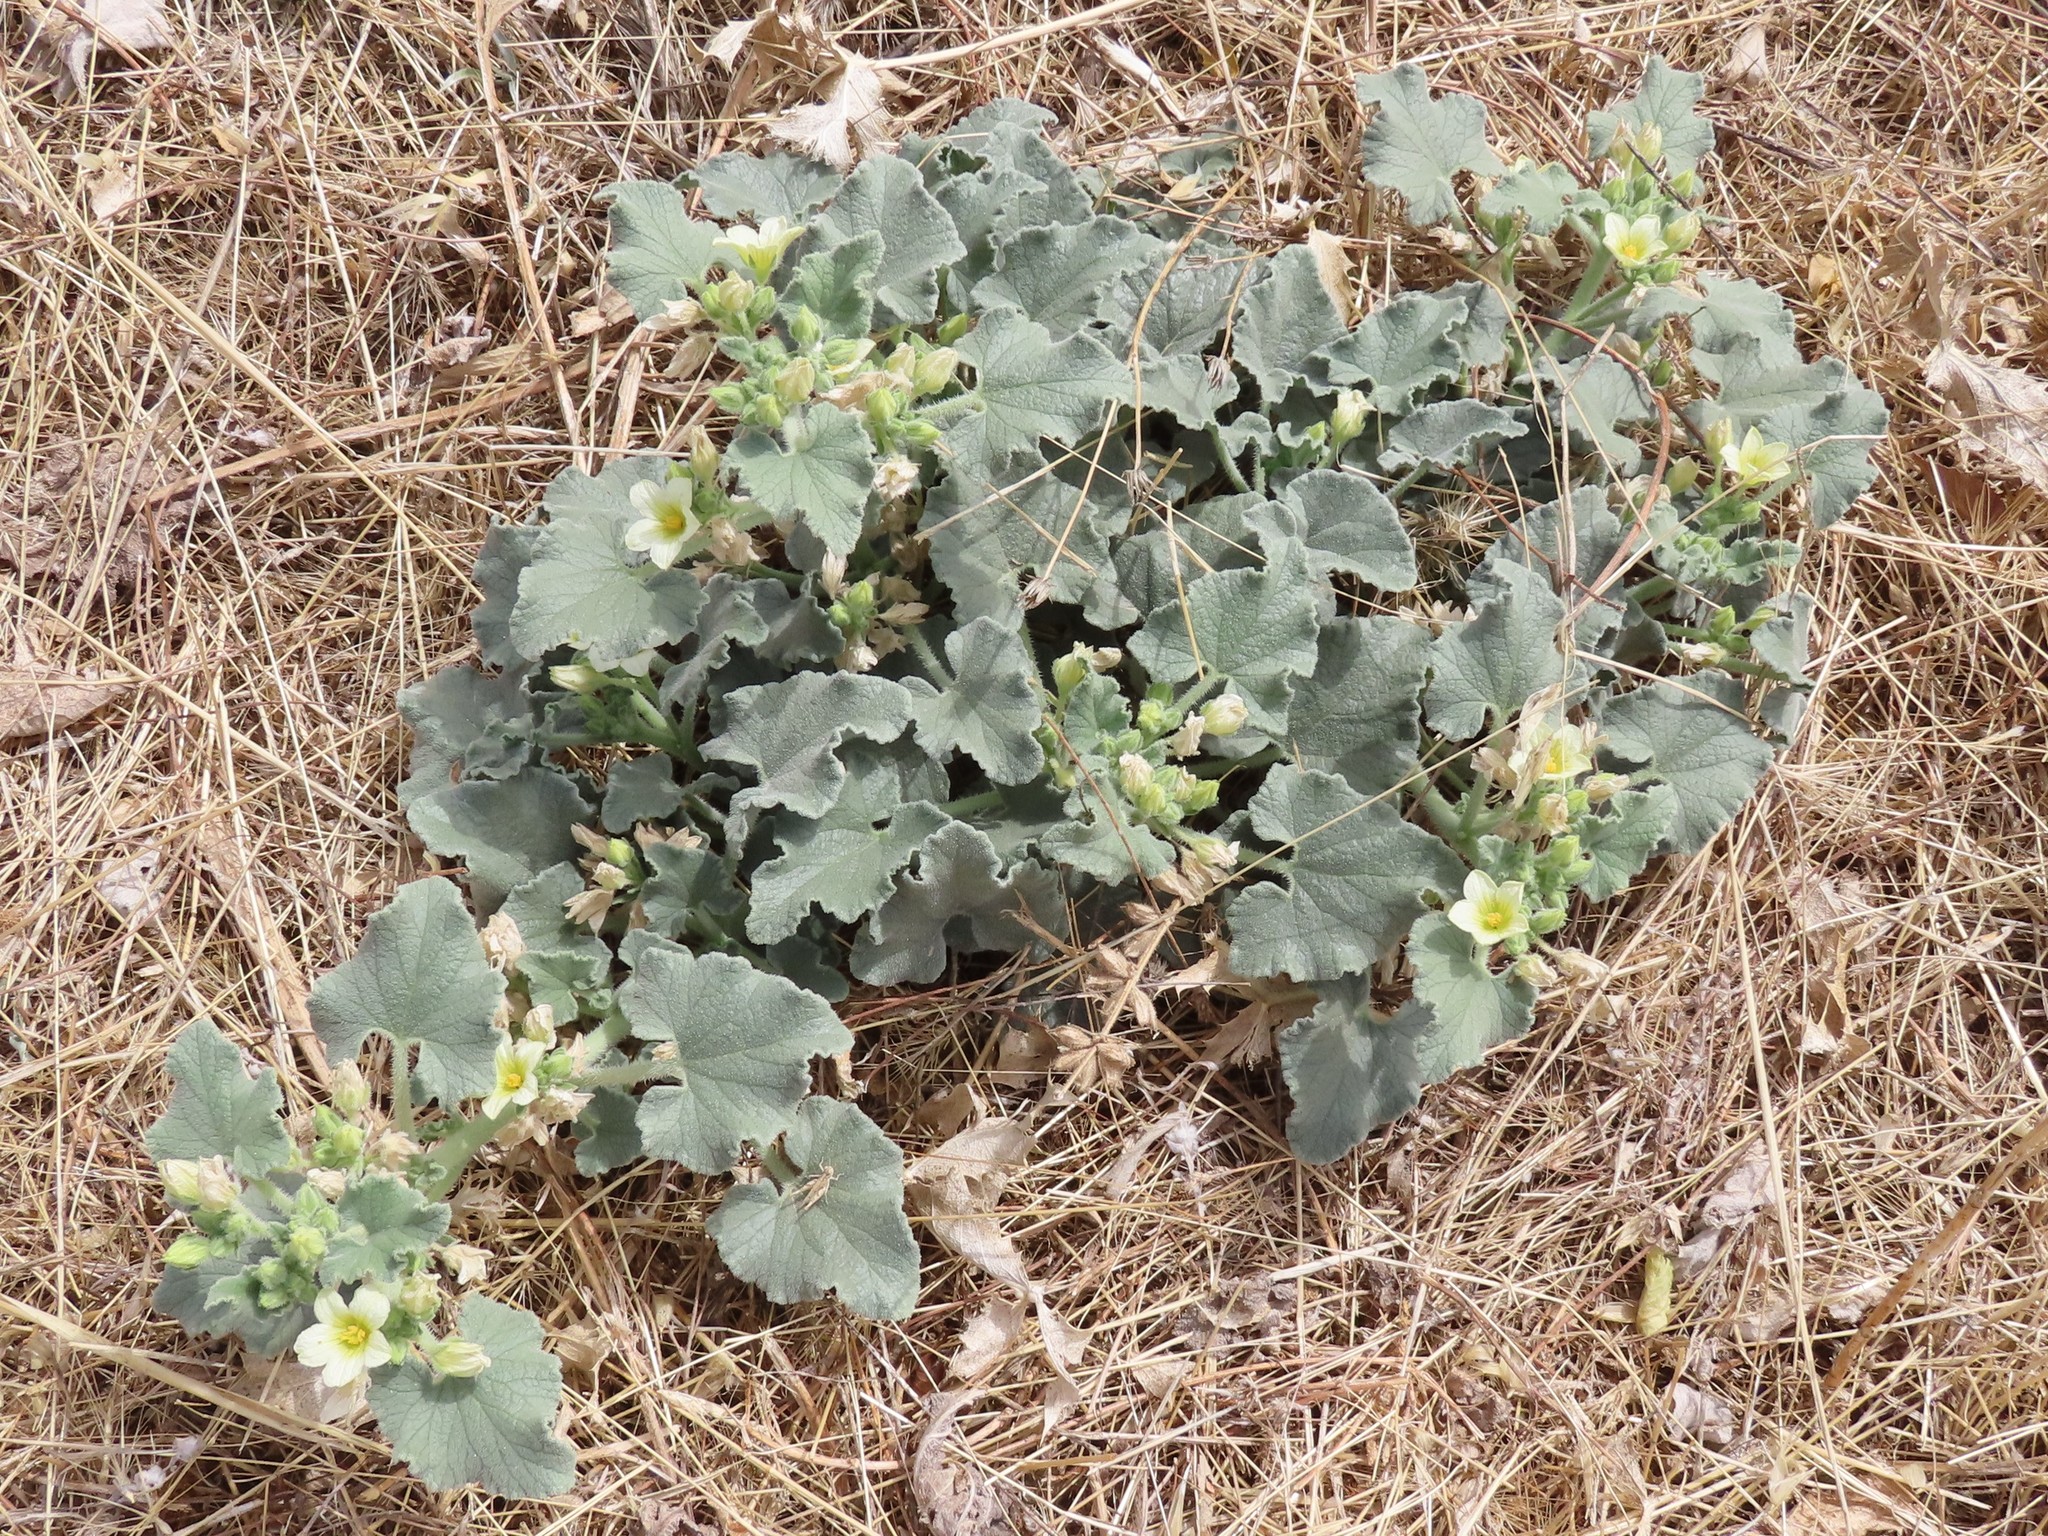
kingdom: Plantae
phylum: Tracheophyta
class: Magnoliopsida
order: Cucurbitales
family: Cucurbitaceae
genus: Ecballium
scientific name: Ecballium elaterium
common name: Squirting cucumber
